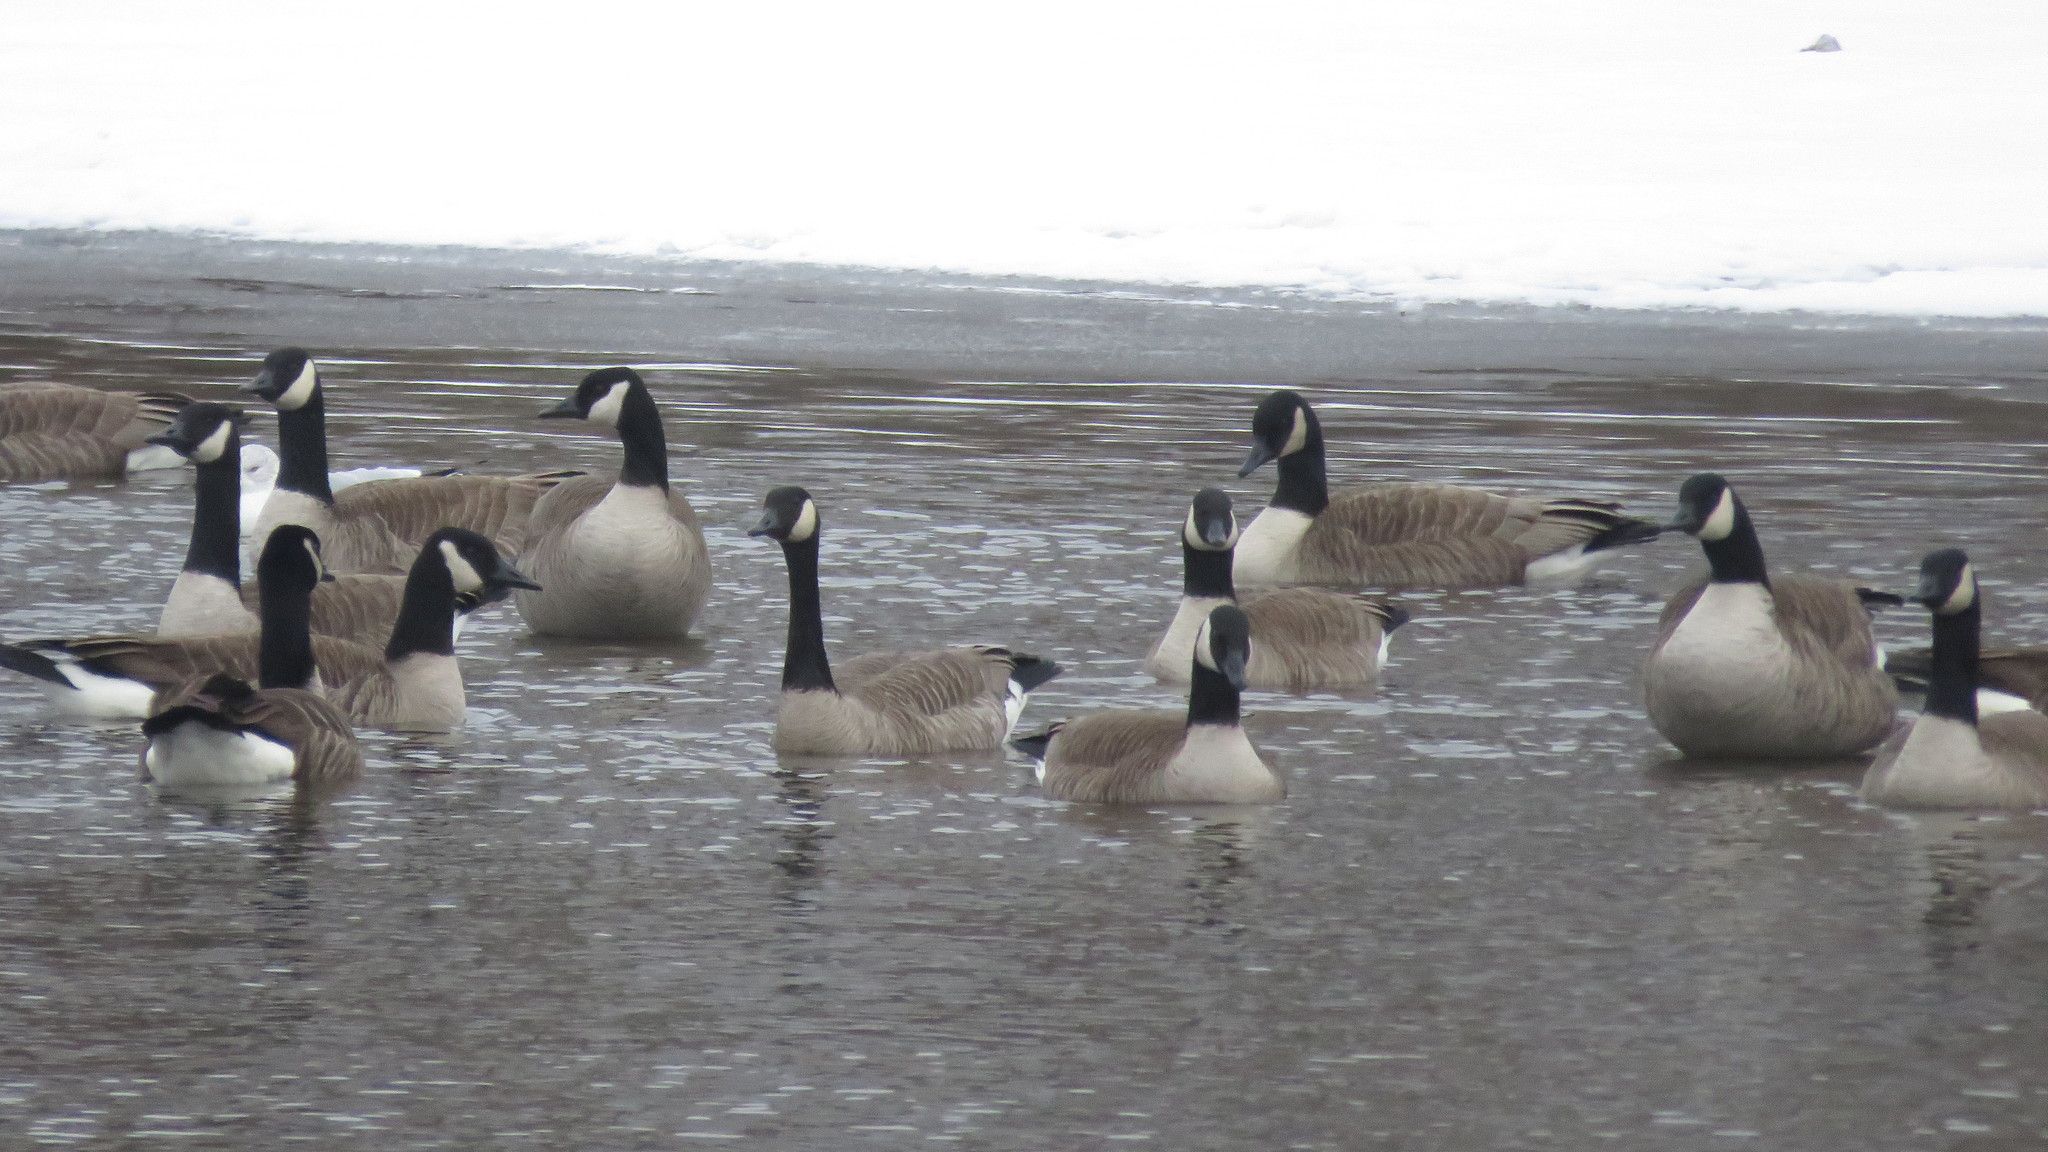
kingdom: Animalia
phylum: Chordata
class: Aves
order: Anseriformes
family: Anatidae
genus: Branta
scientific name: Branta canadensis
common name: Canada goose
